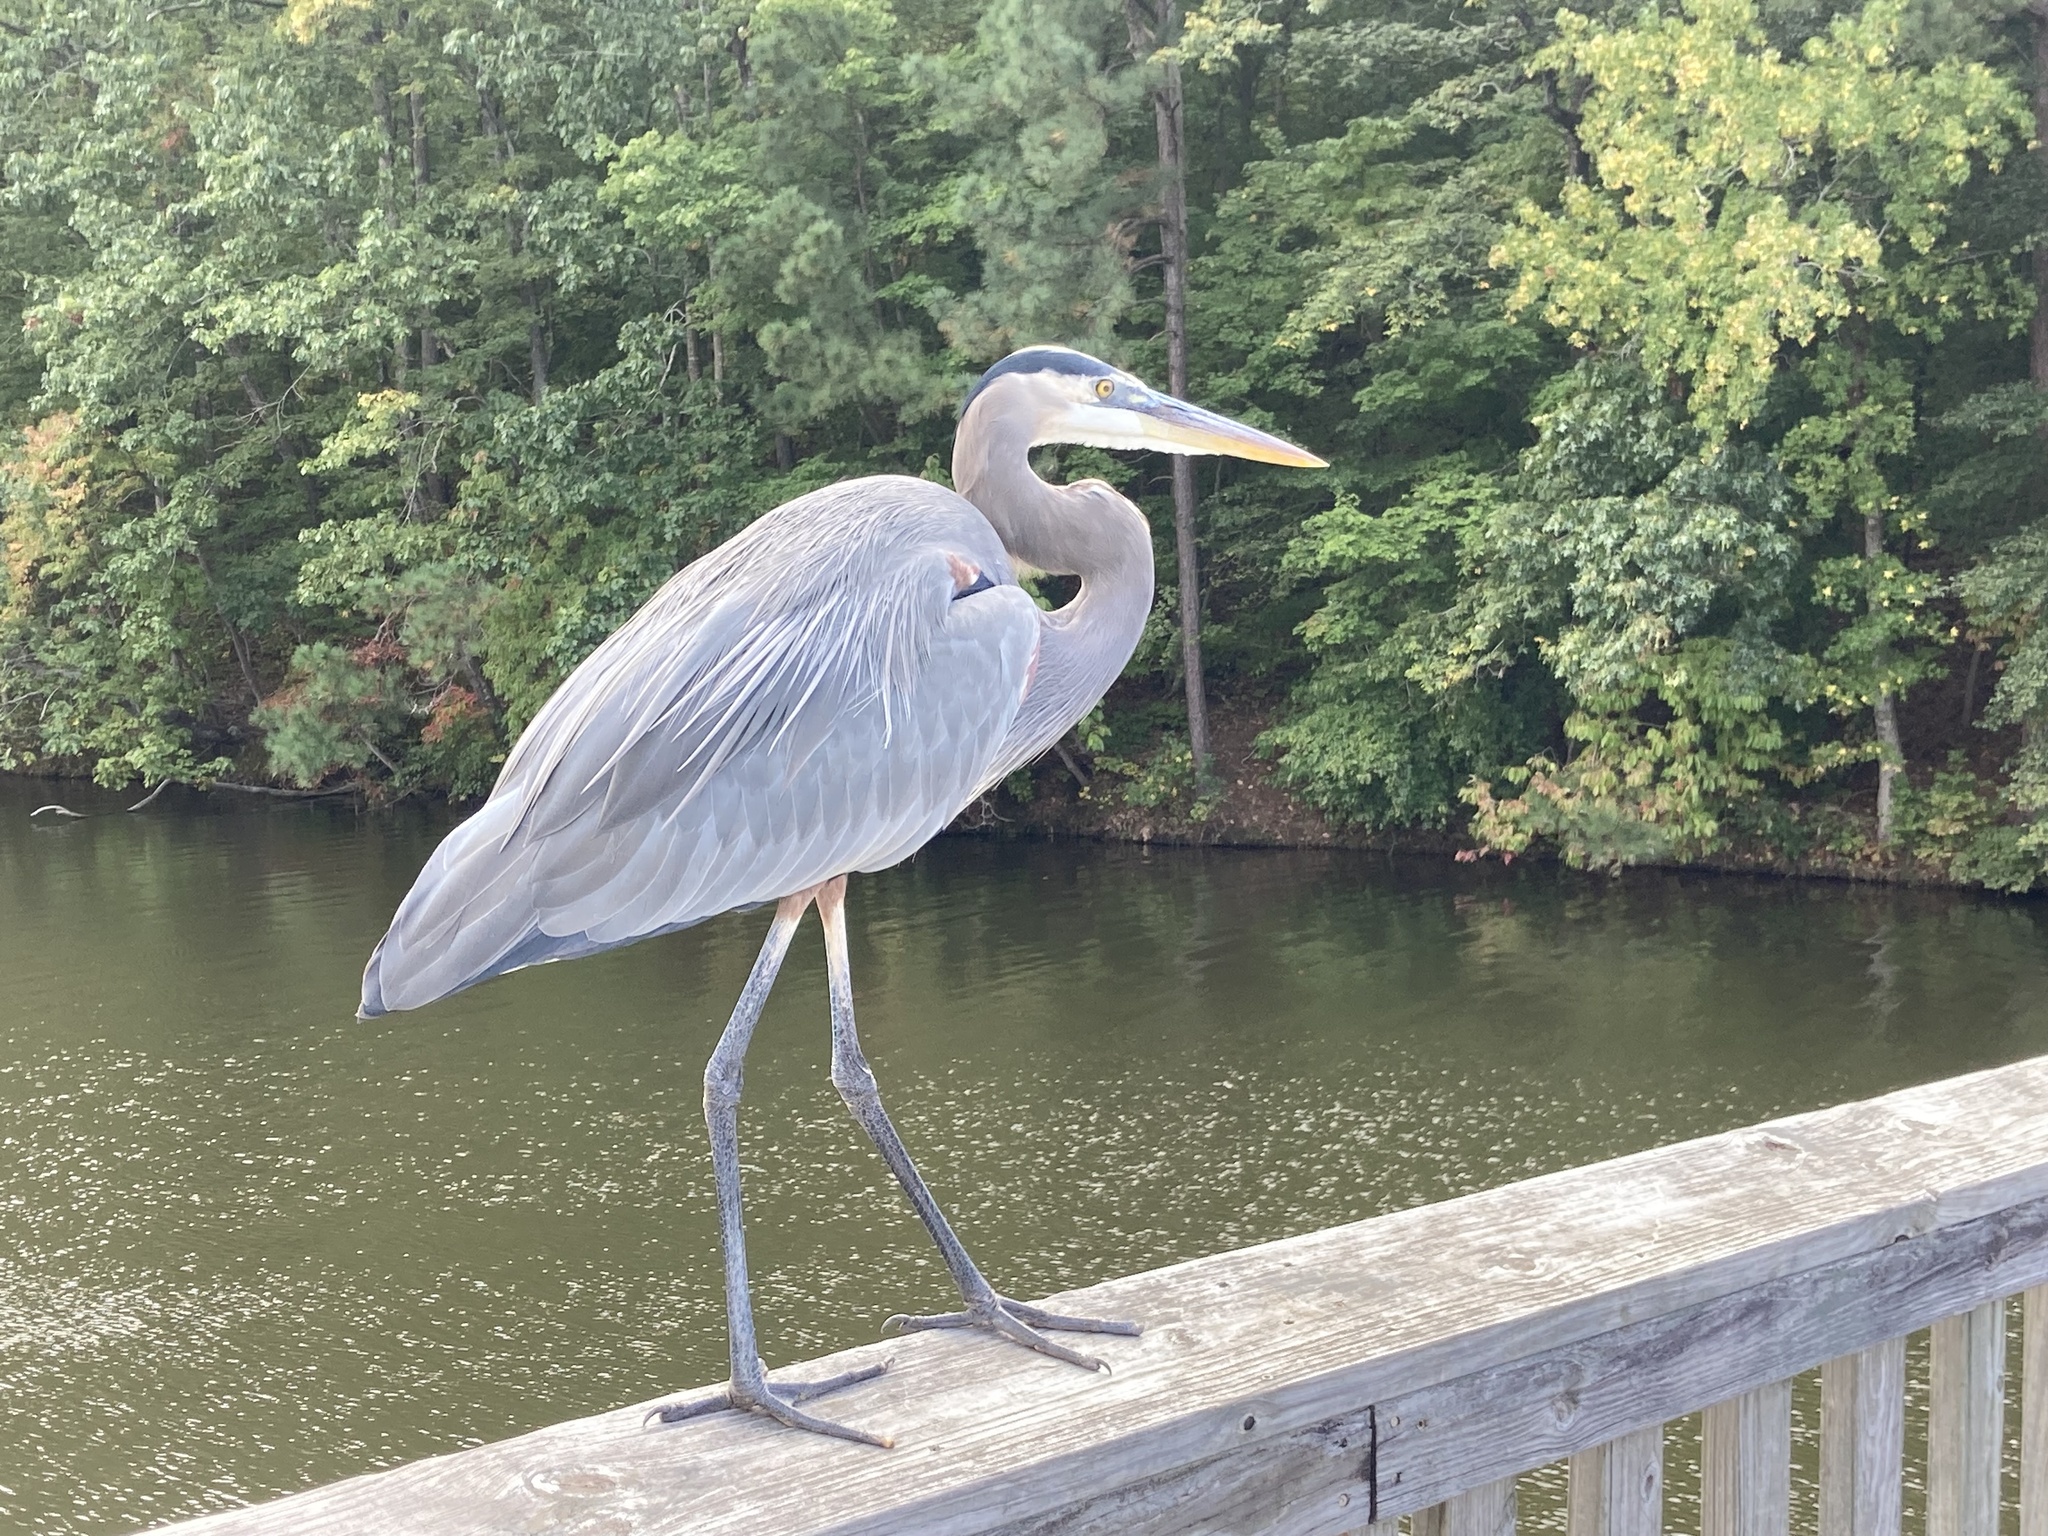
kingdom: Animalia
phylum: Chordata
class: Aves
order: Pelecaniformes
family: Ardeidae
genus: Ardea
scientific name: Ardea herodias
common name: Great blue heron
